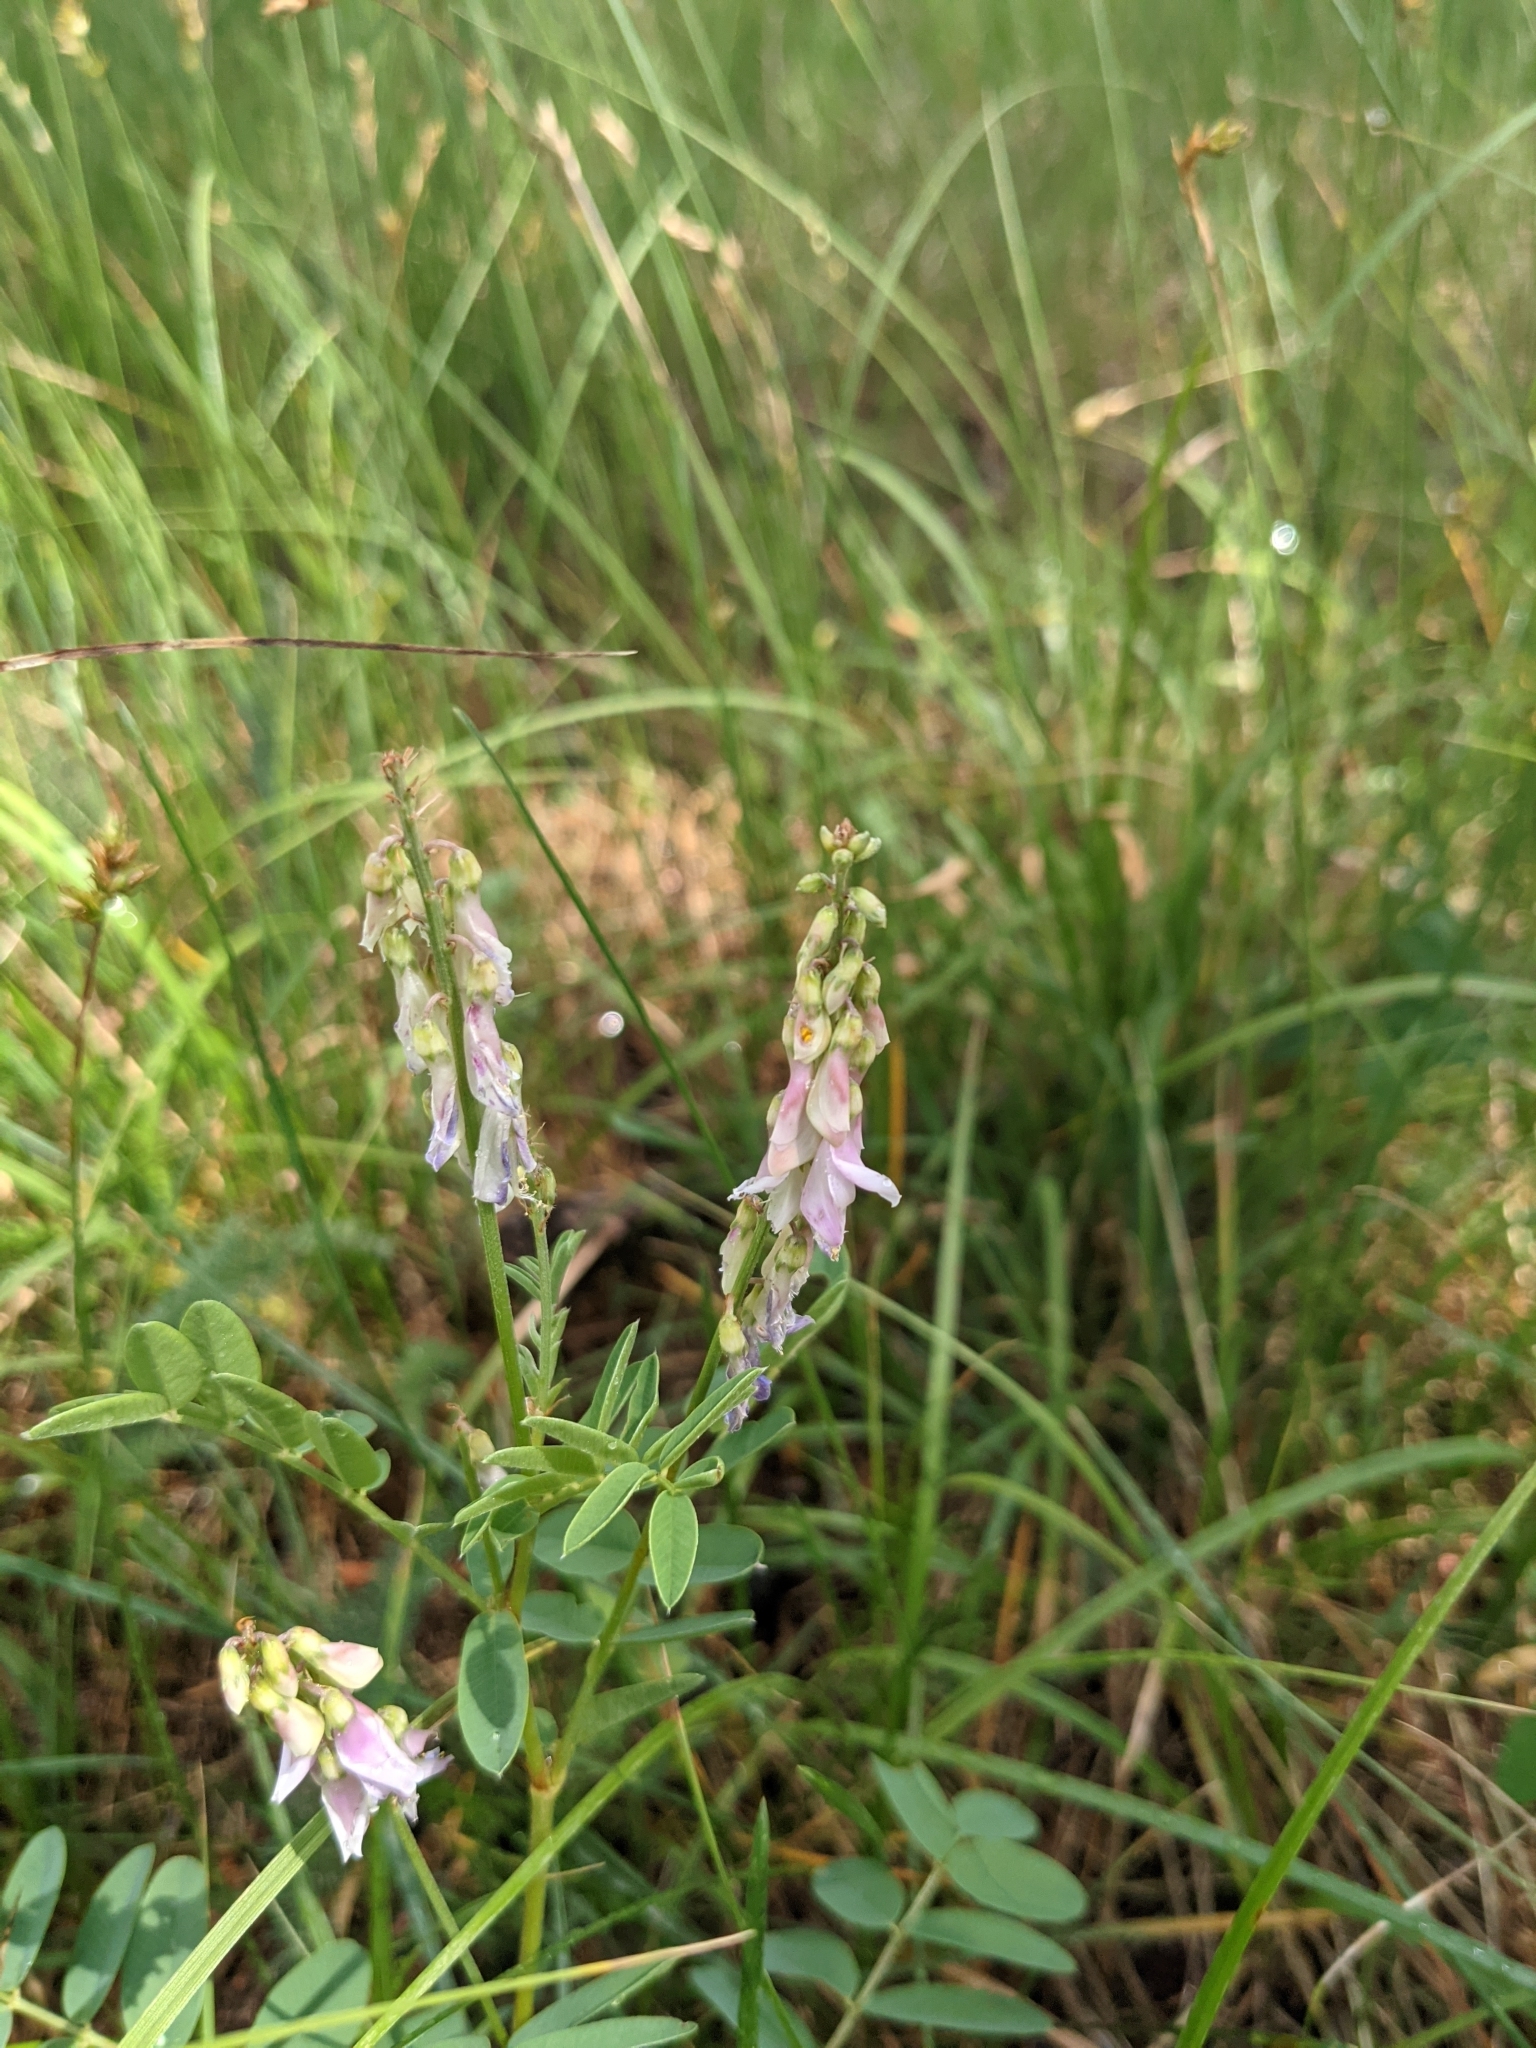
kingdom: Plantae
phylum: Tracheophyta
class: Magnoliopsida
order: Fabales
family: Fabaceae
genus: Hedysarum
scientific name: Hedysarum alpinum
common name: Alpine sweet-vetch
